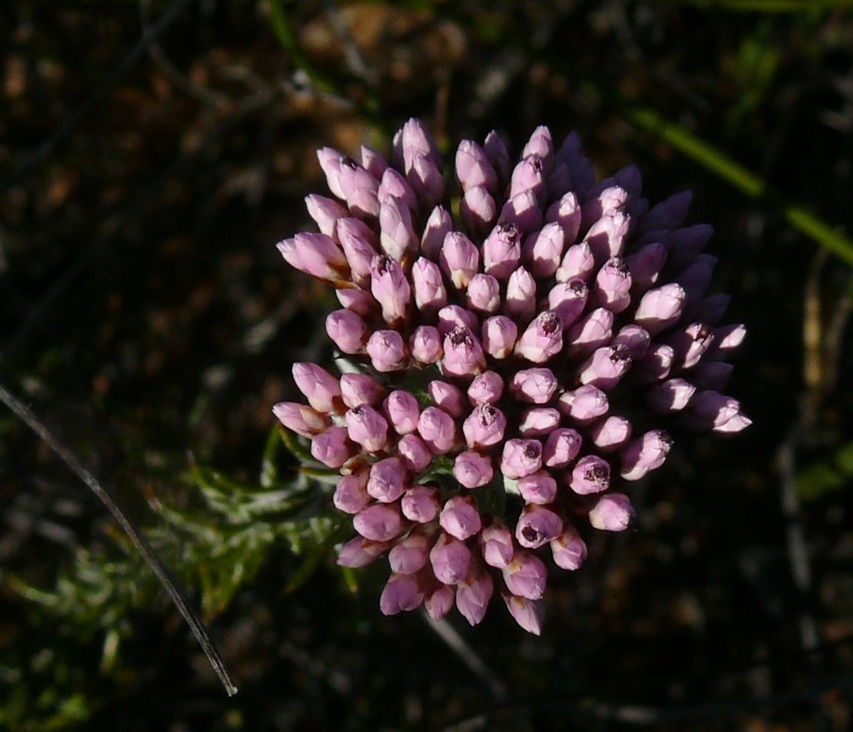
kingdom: Plantae
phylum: Tracheophyta
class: Magnoliopsida
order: Asterales
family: Asteraceae
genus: Metalasia
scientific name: Metalasia fastigiata
